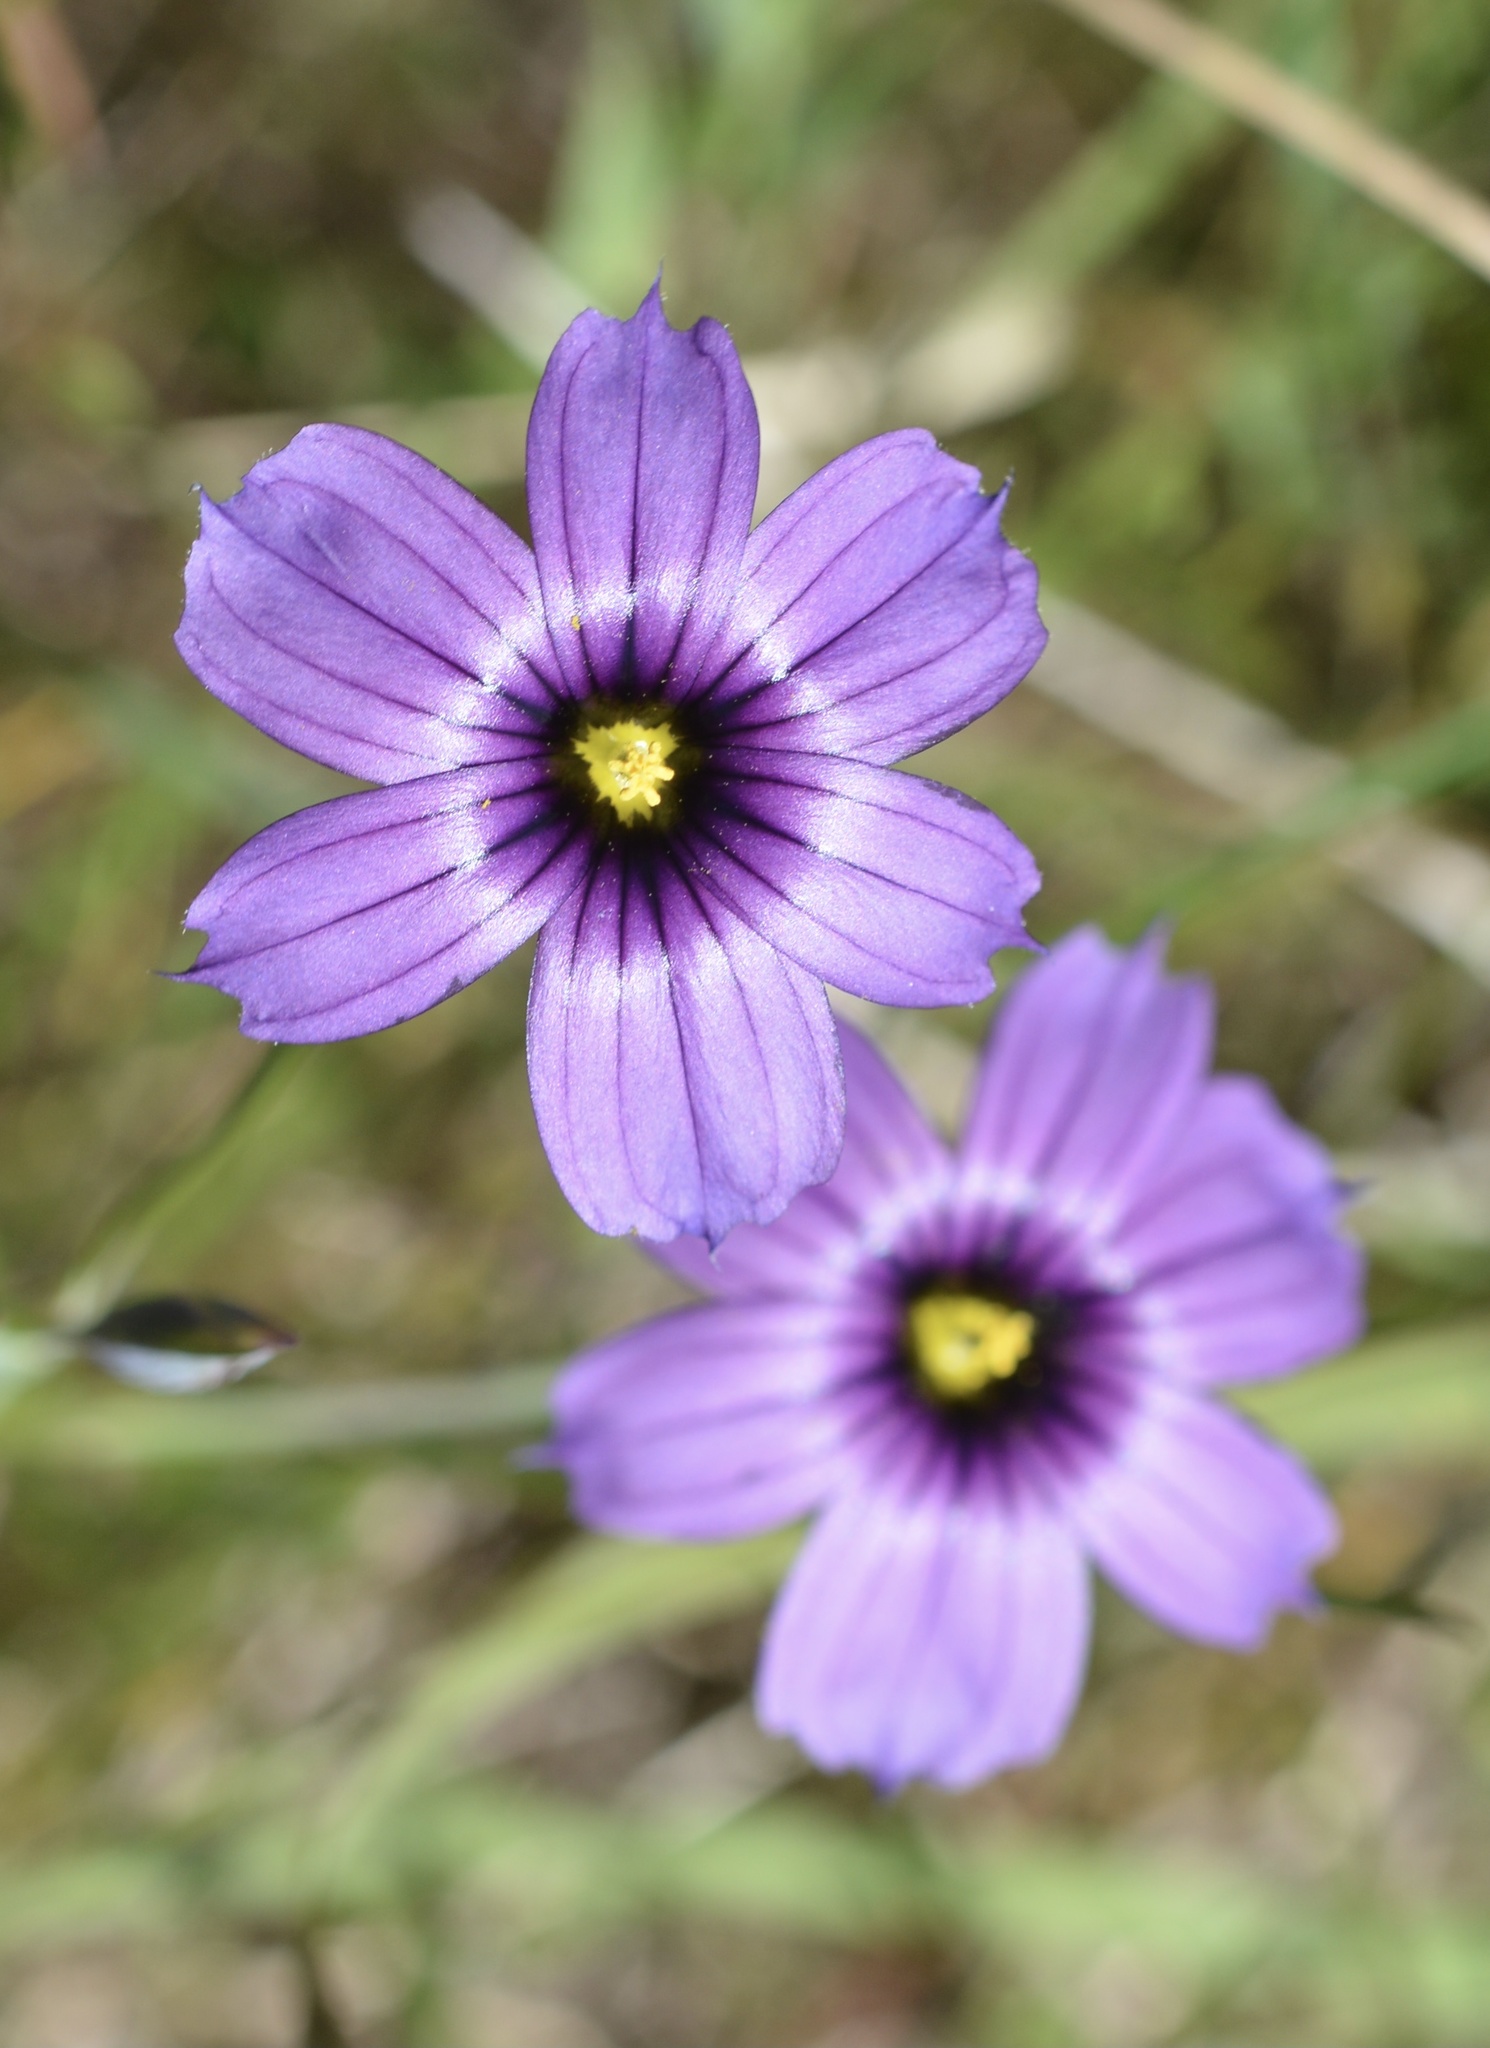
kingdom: Plantae
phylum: Tracheophyta
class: Liliopsida
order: Asparagales
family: Iridaceae
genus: Sisyrinchium
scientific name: Sisyrinchium bellum
